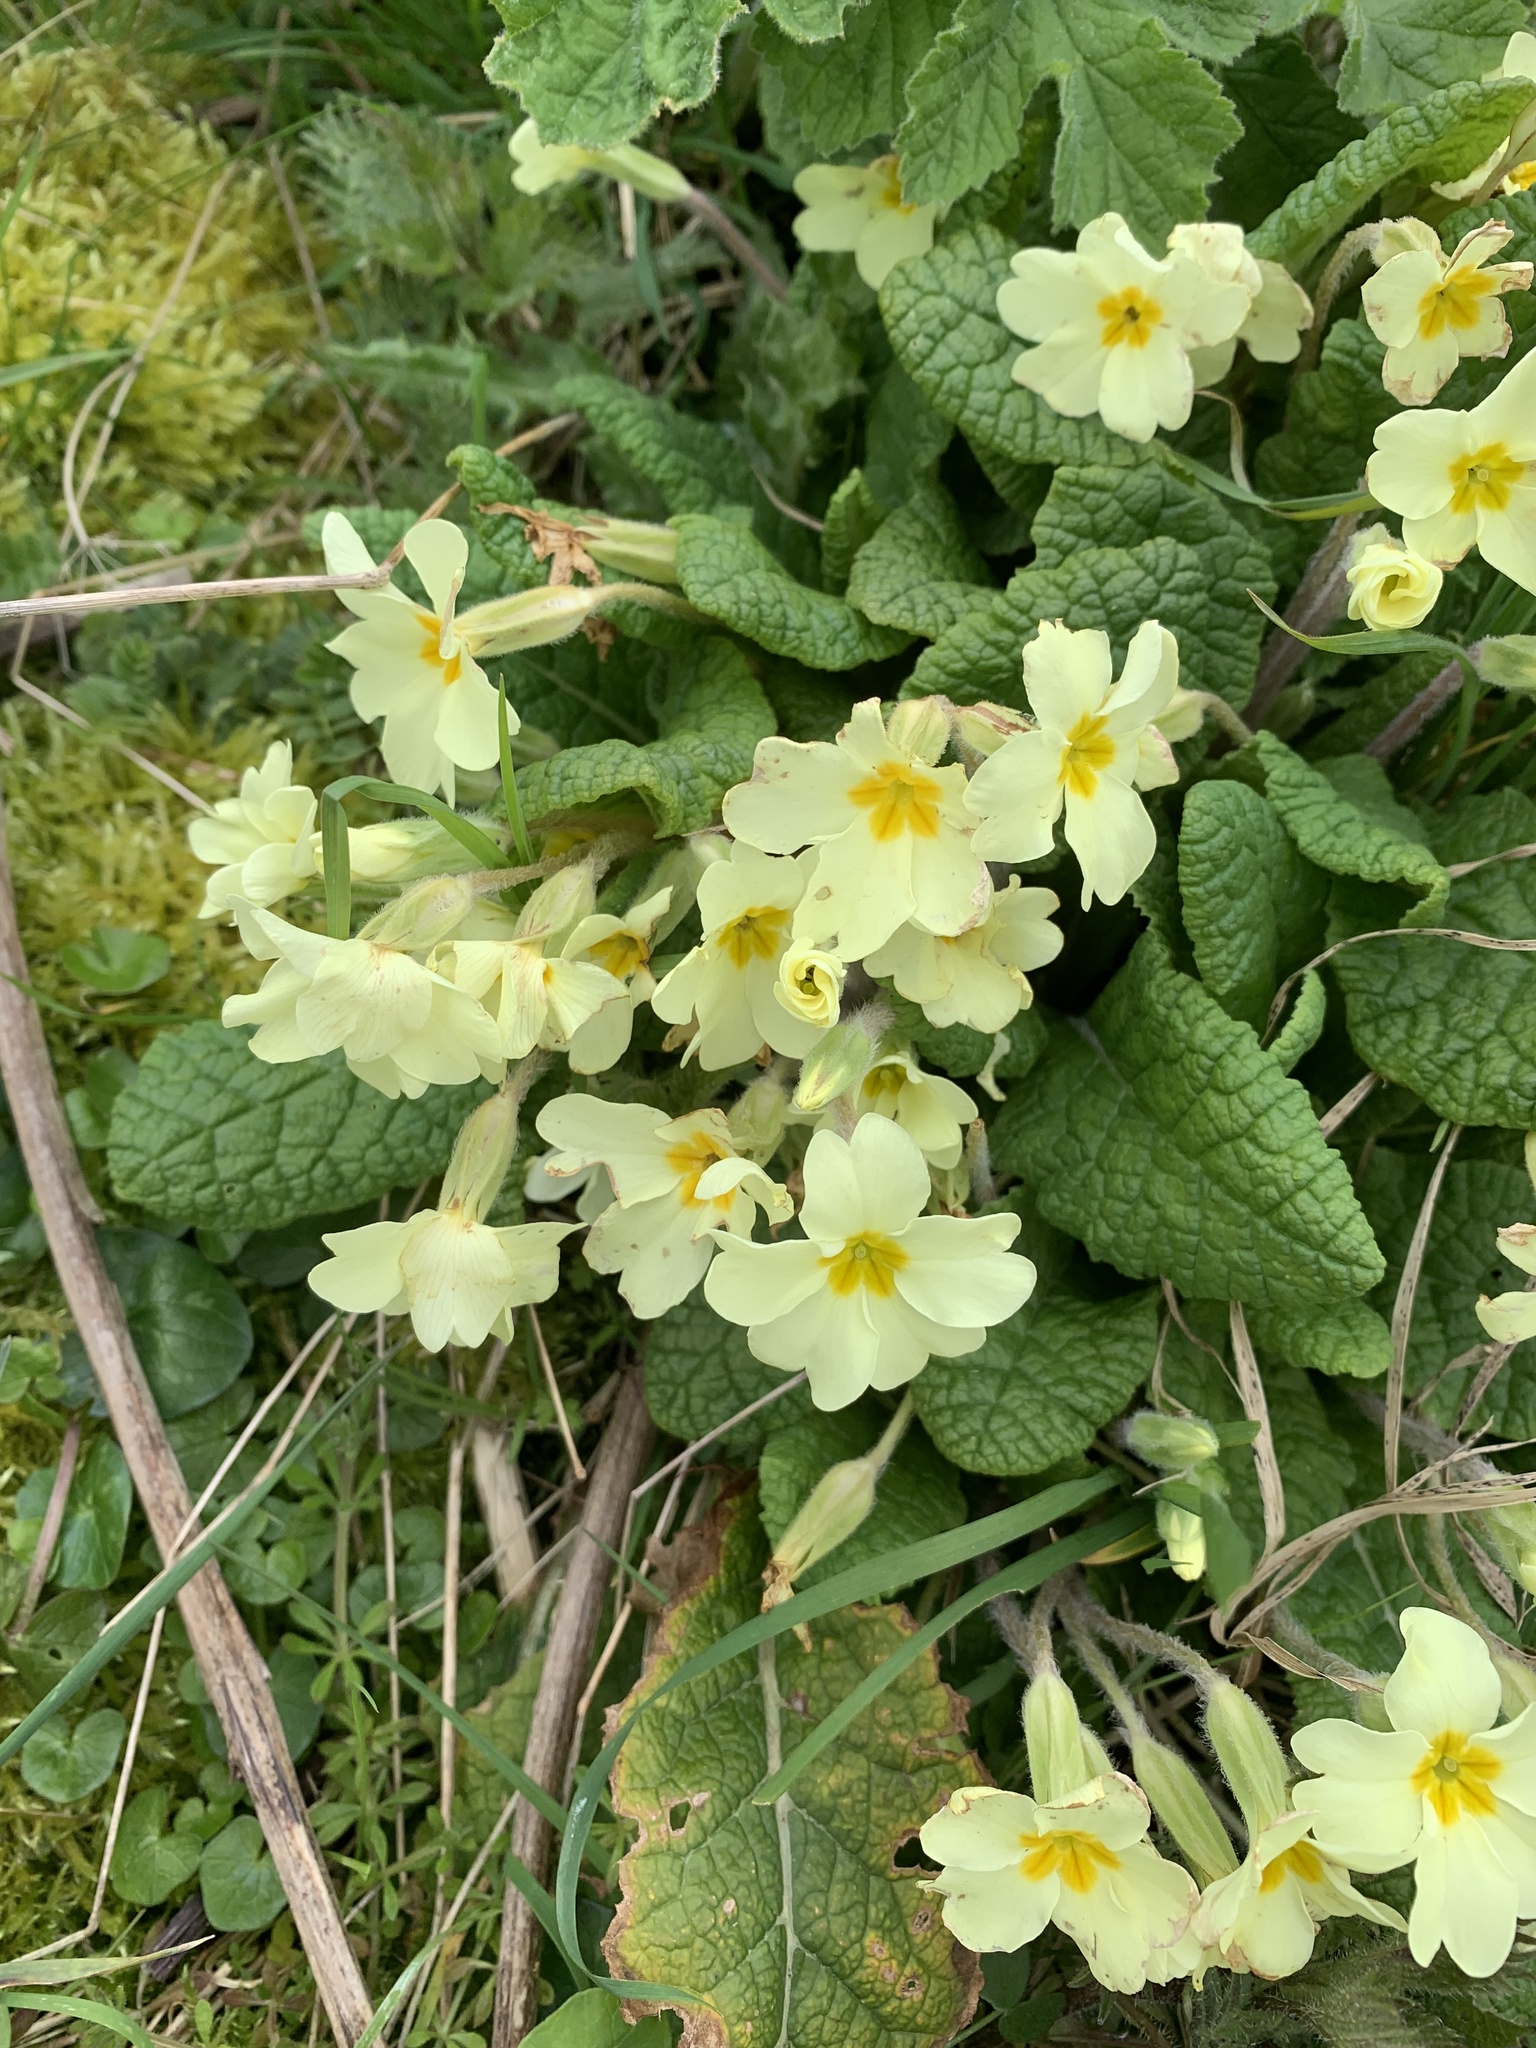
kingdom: Plantae
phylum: Tracheophyta
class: Magnoliopsida
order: Ericales
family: Primulaceae
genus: Primula
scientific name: Primula vulgaris
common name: Primrose
